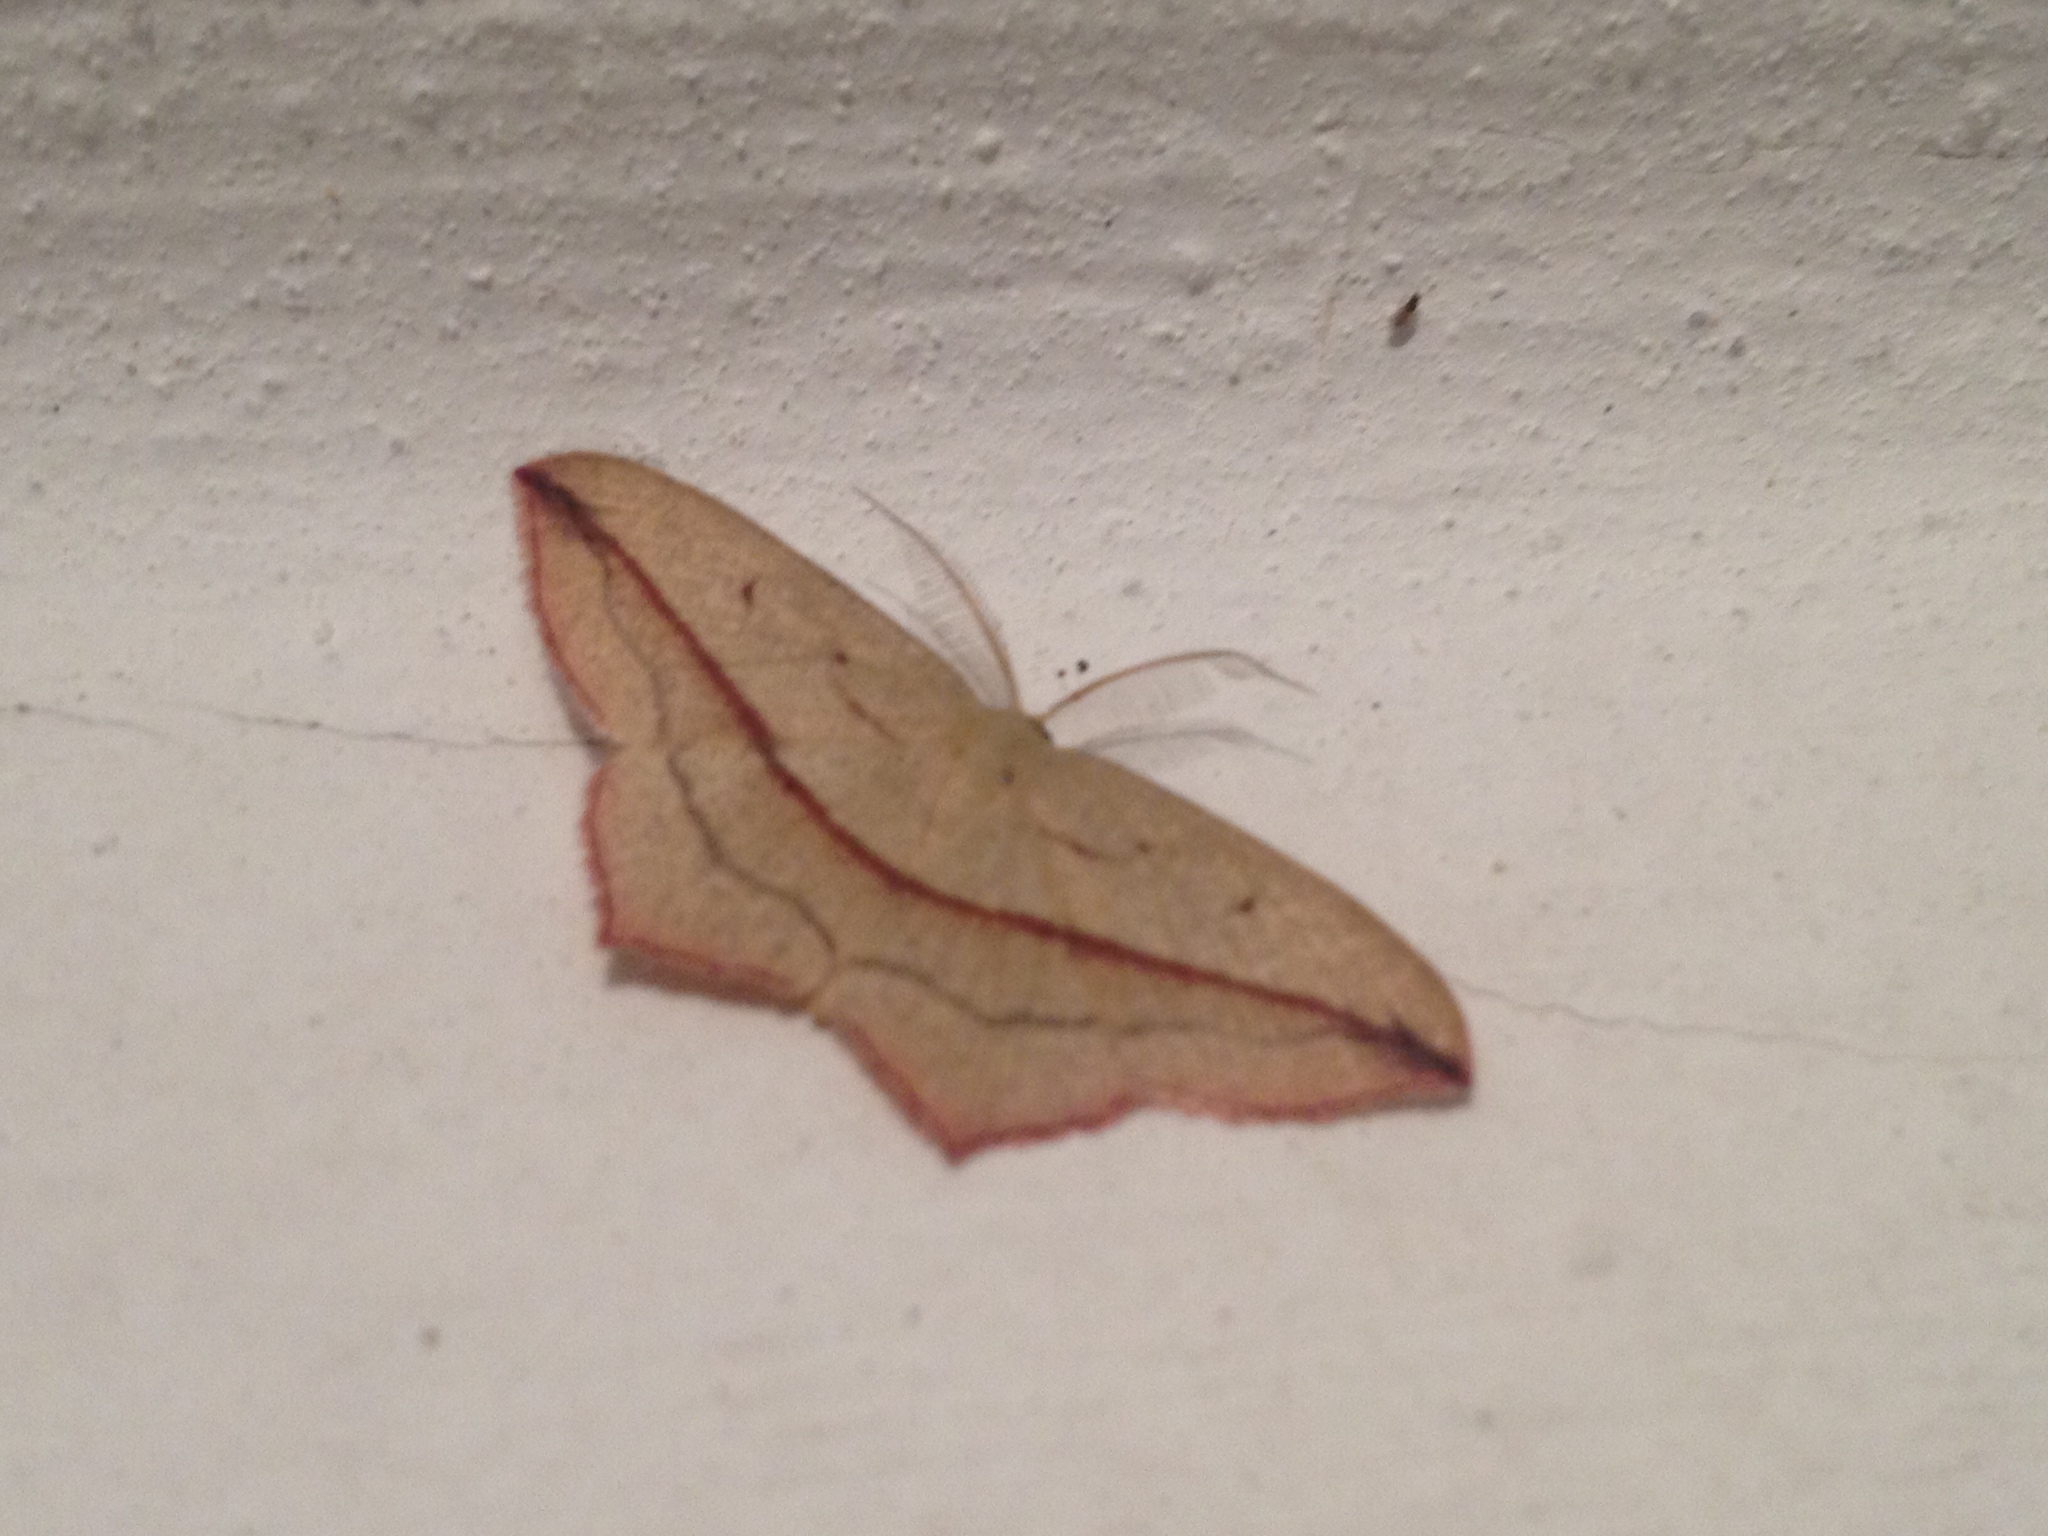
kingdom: Animalia
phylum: Arthropoda
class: Insecta
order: Lepidoptera
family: Geometridae
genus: Timandra
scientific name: Timandra comae
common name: Blood-vein
